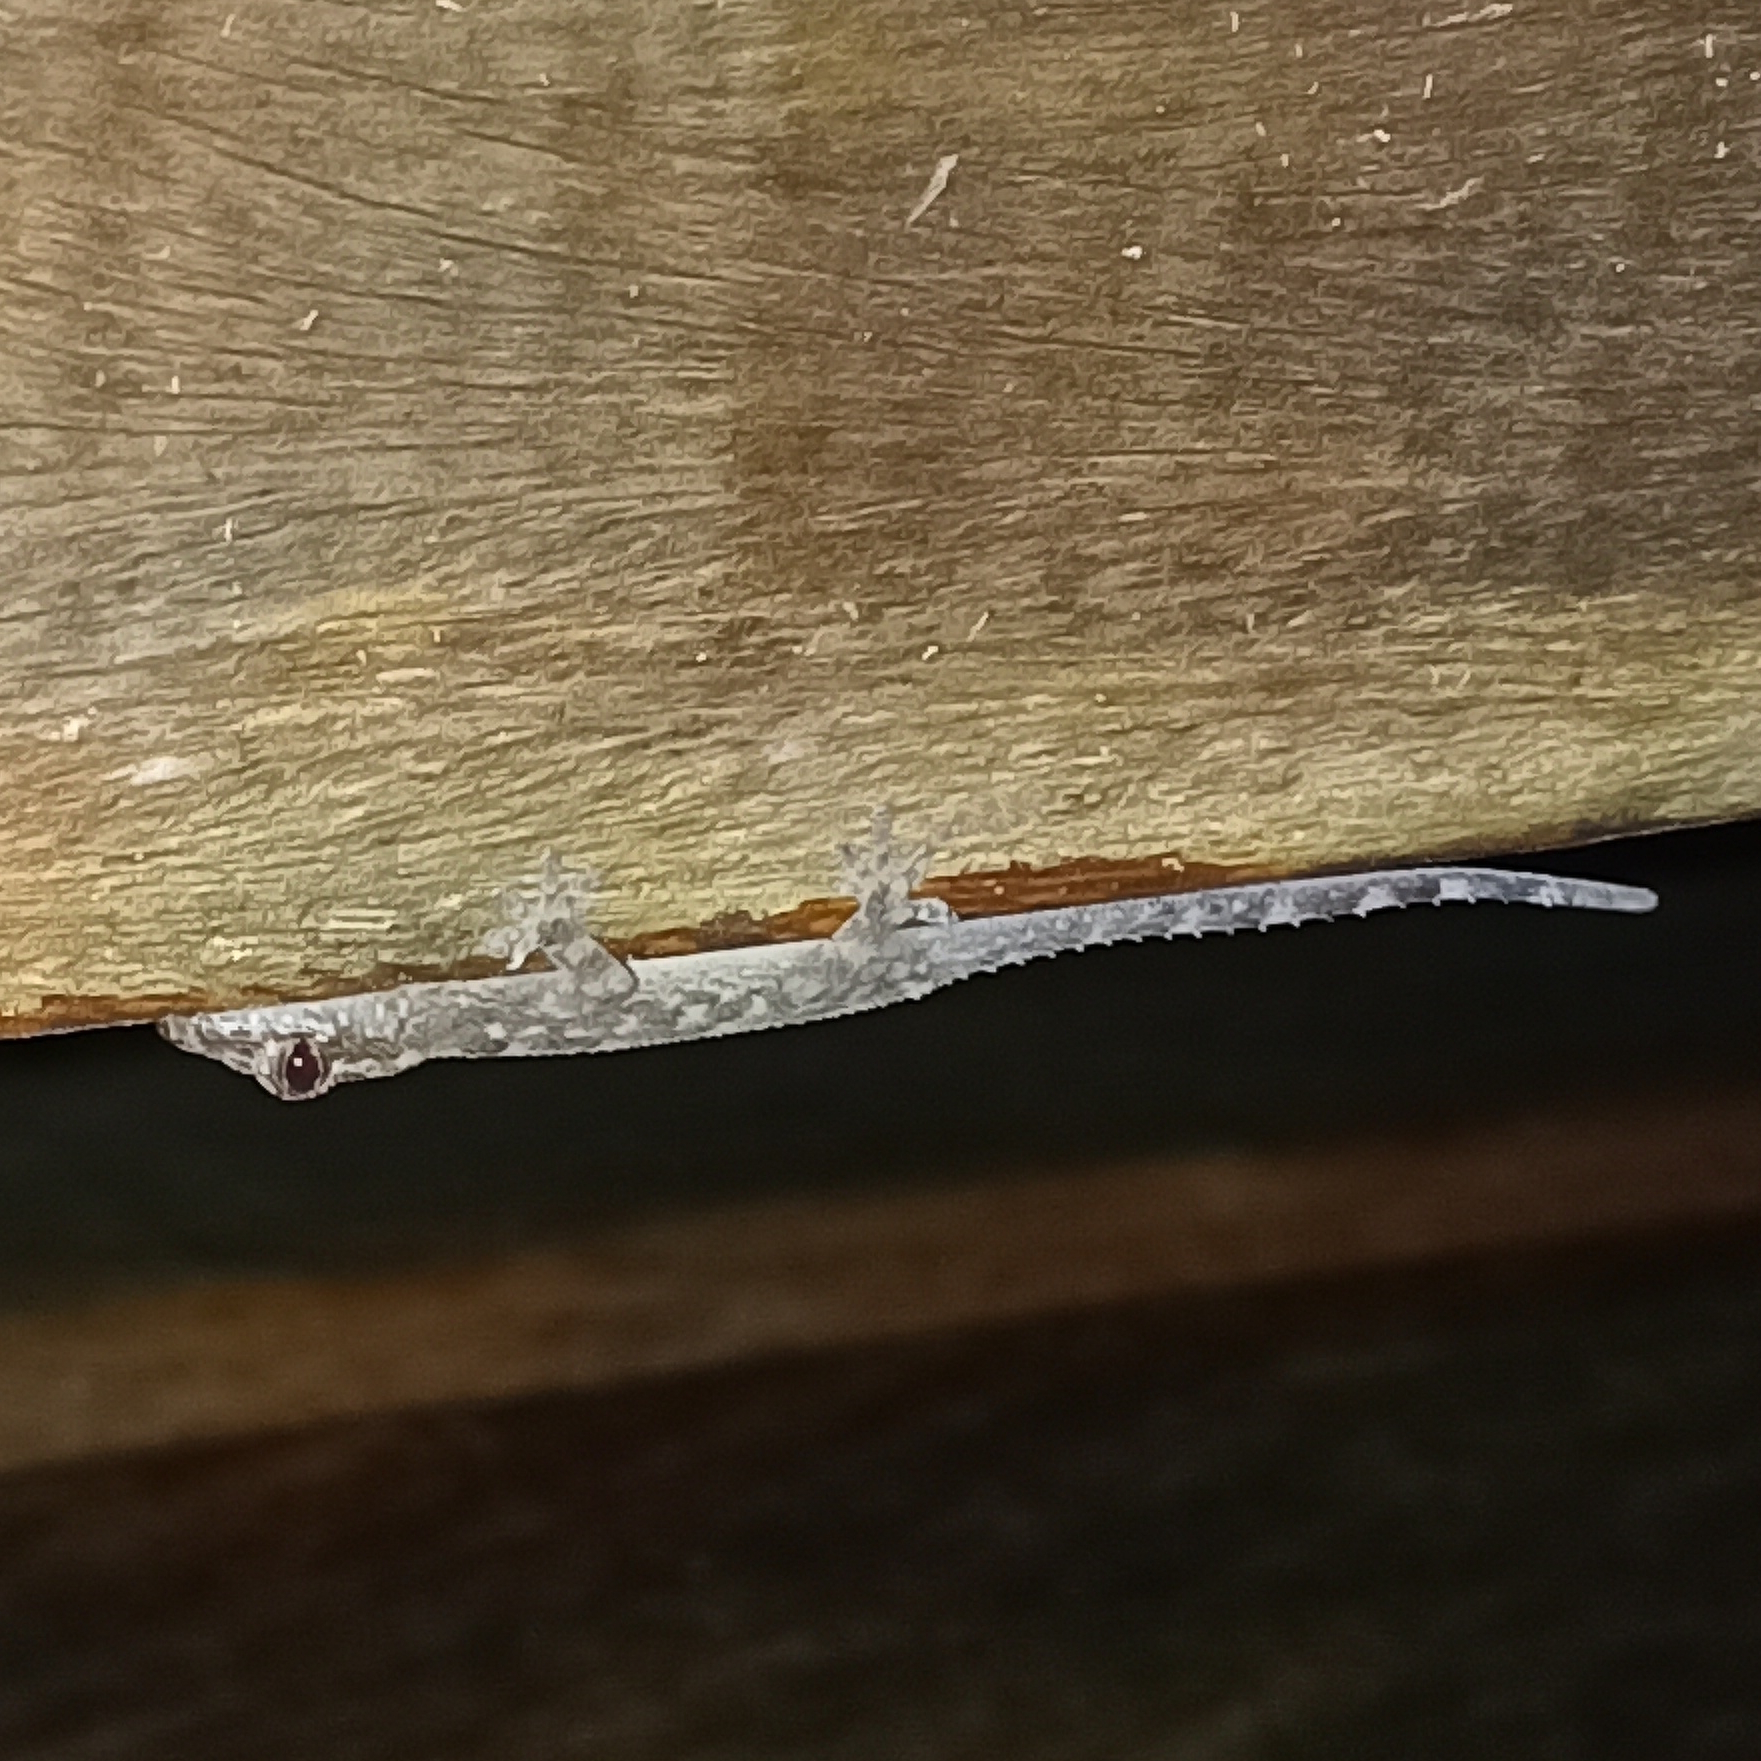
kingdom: Animalia
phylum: Chordata
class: Squamata
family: Gekkonidae
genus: Hemidactylus
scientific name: Hemidactylus mabouia
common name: House gecko
